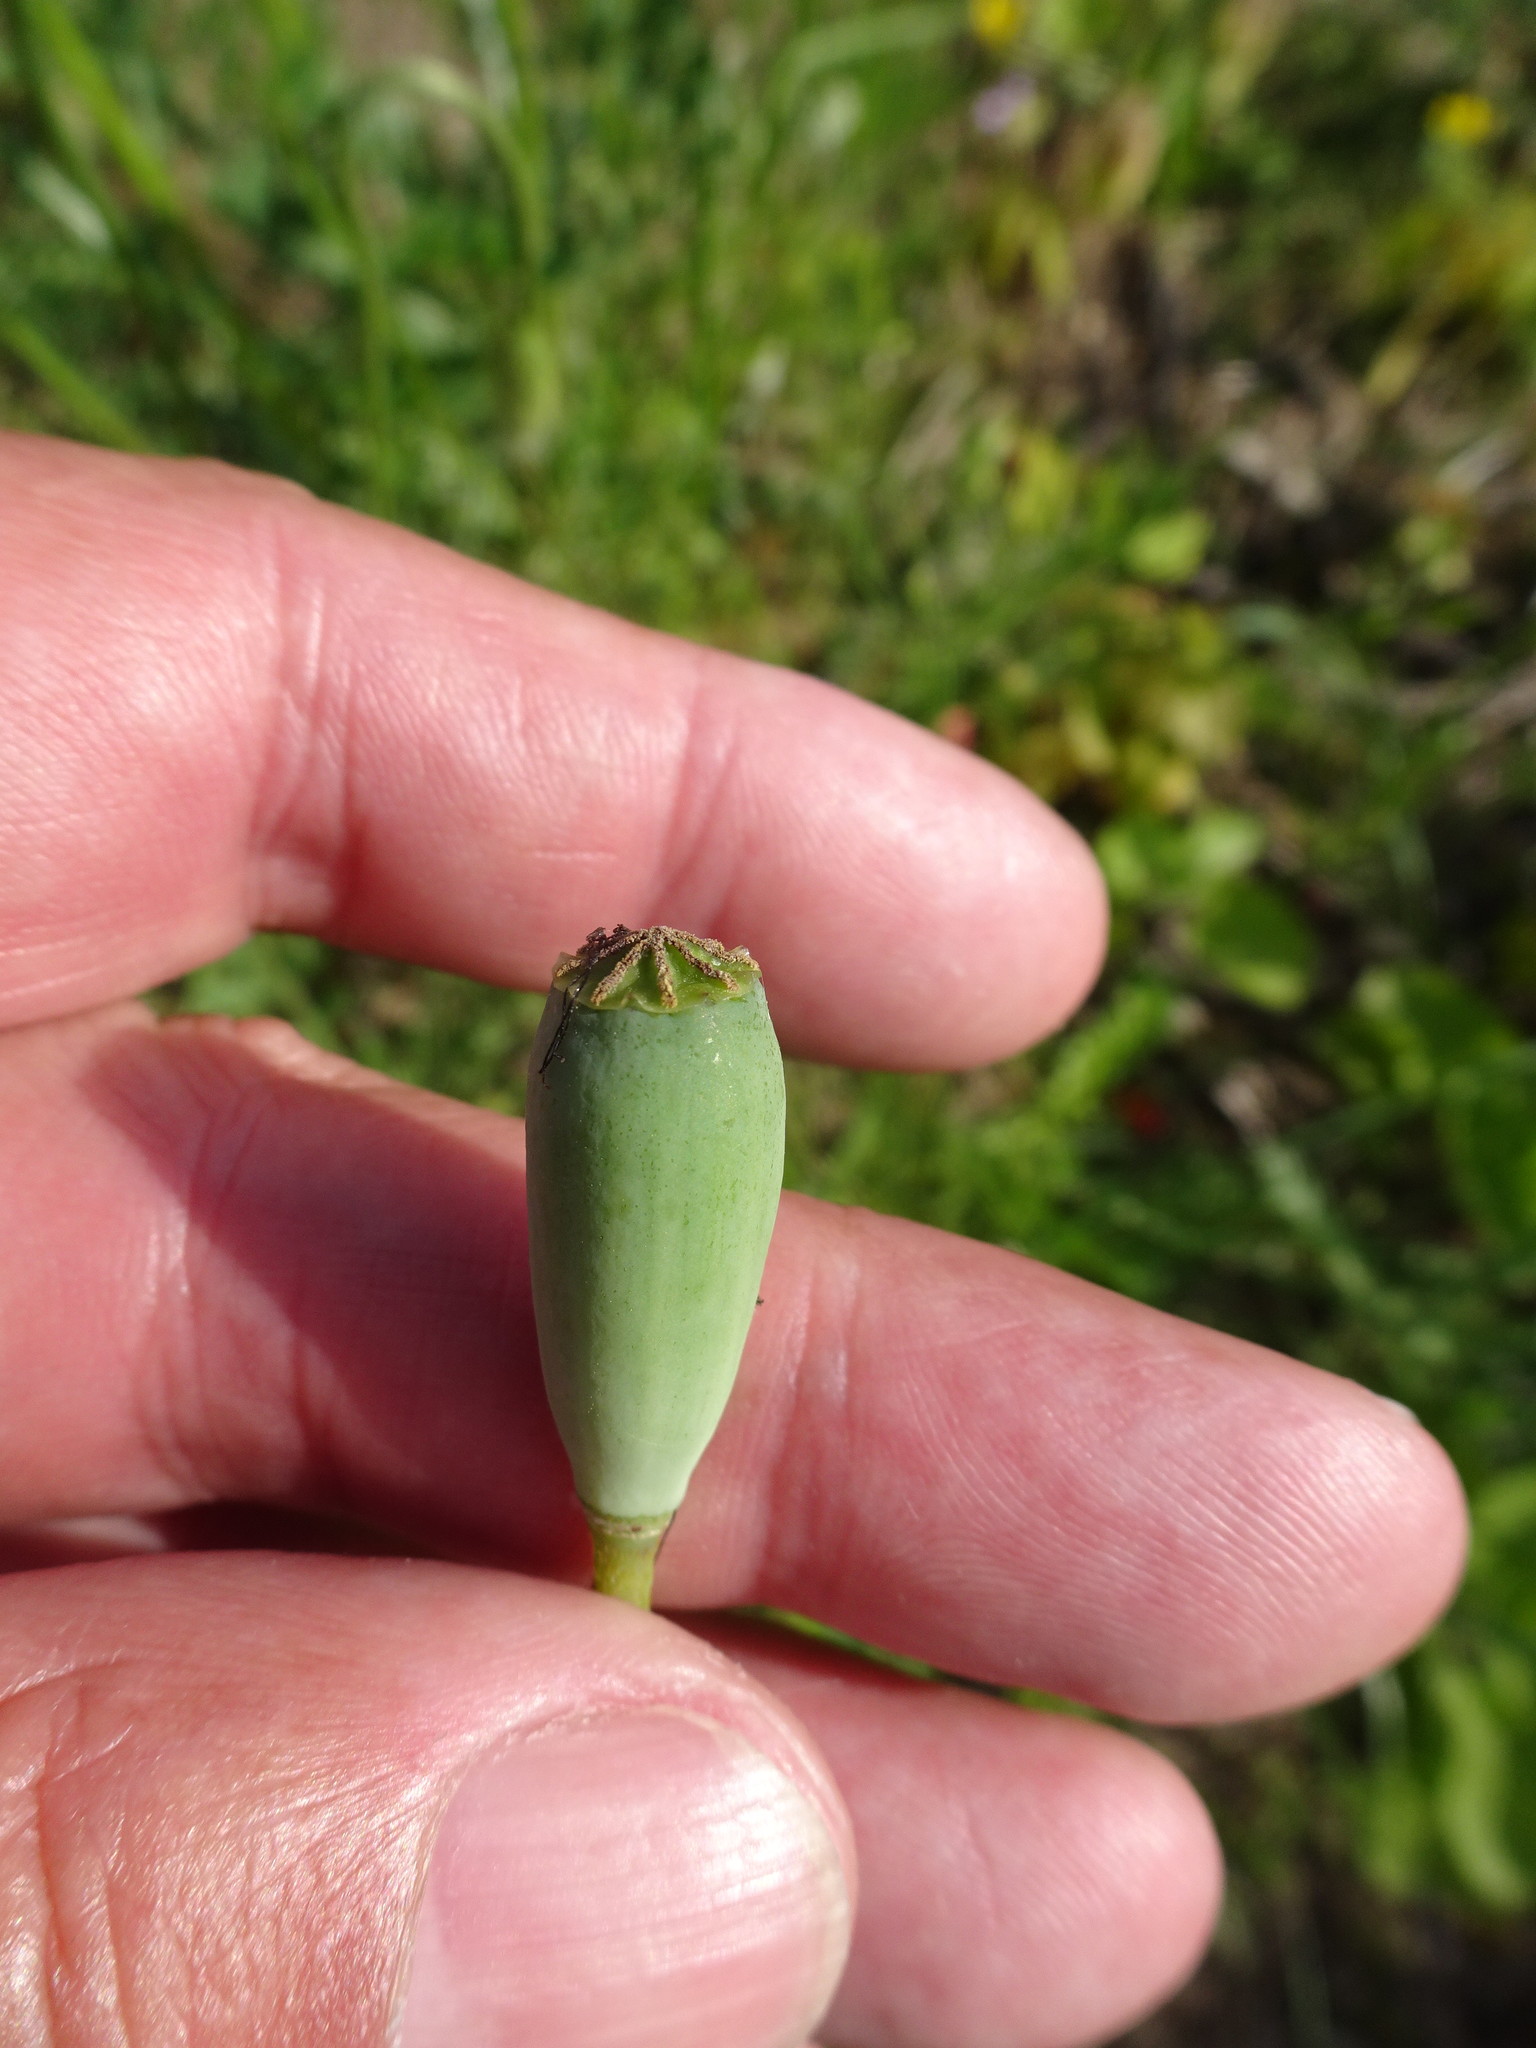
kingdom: Plantae
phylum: Tracheophyta
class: Magnoliopsida
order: Ranunculales
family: Papaveraceae
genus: Papaver
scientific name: Papaver dubium
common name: Long-headed poppy
